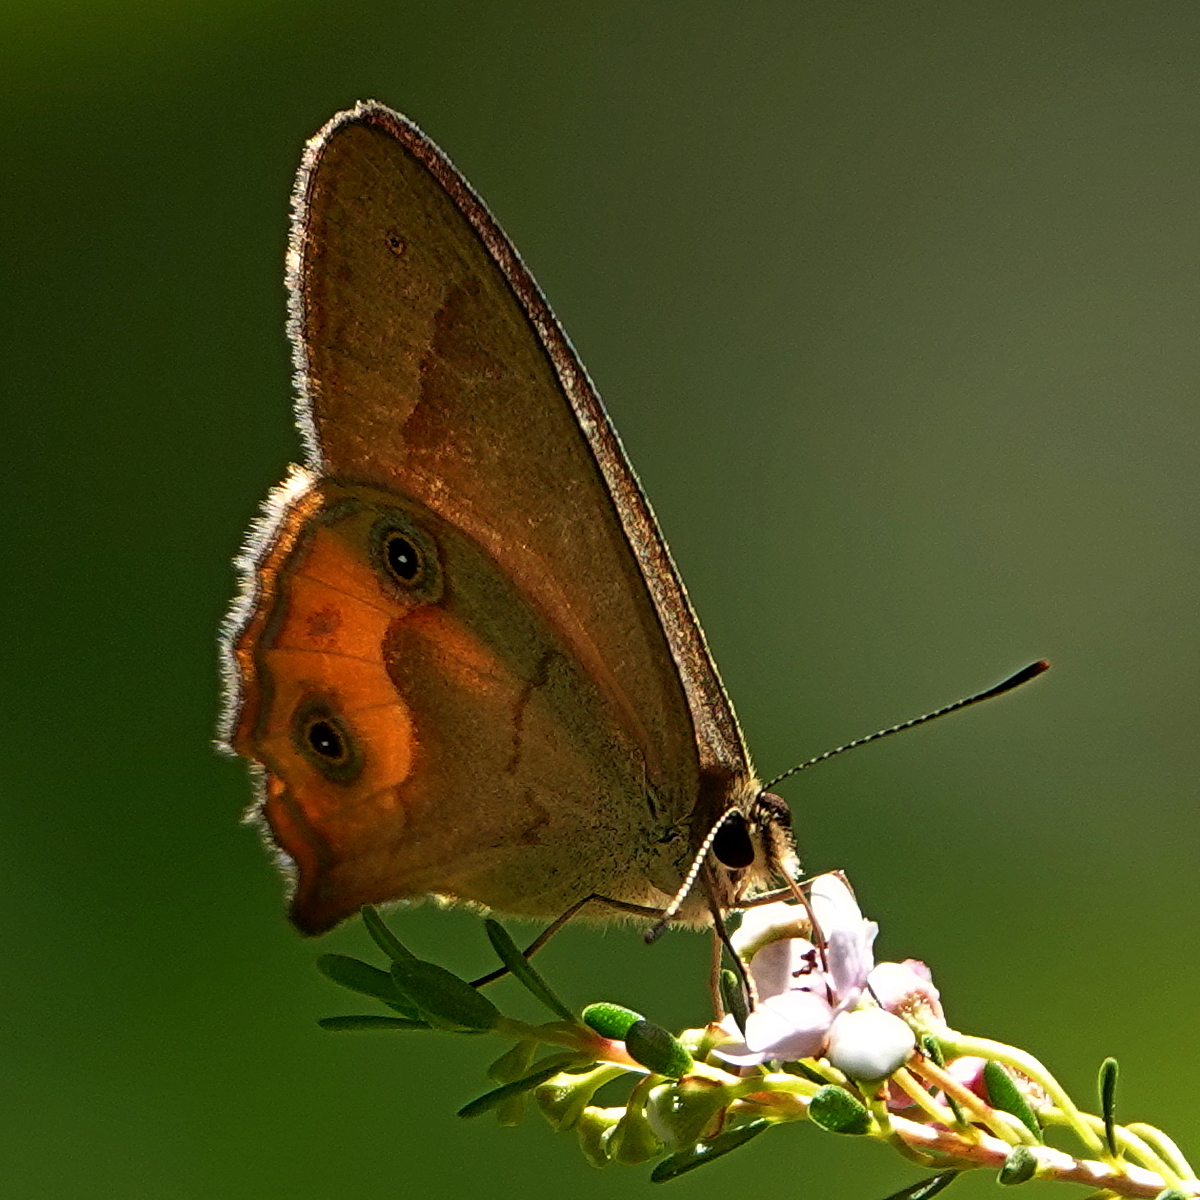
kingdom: Animalia
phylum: Arthropoda
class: Insecta
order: Lepidoptera
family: Nymphalidae
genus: Hypocysta
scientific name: Hypocysta metirius
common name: Brown ringlet
